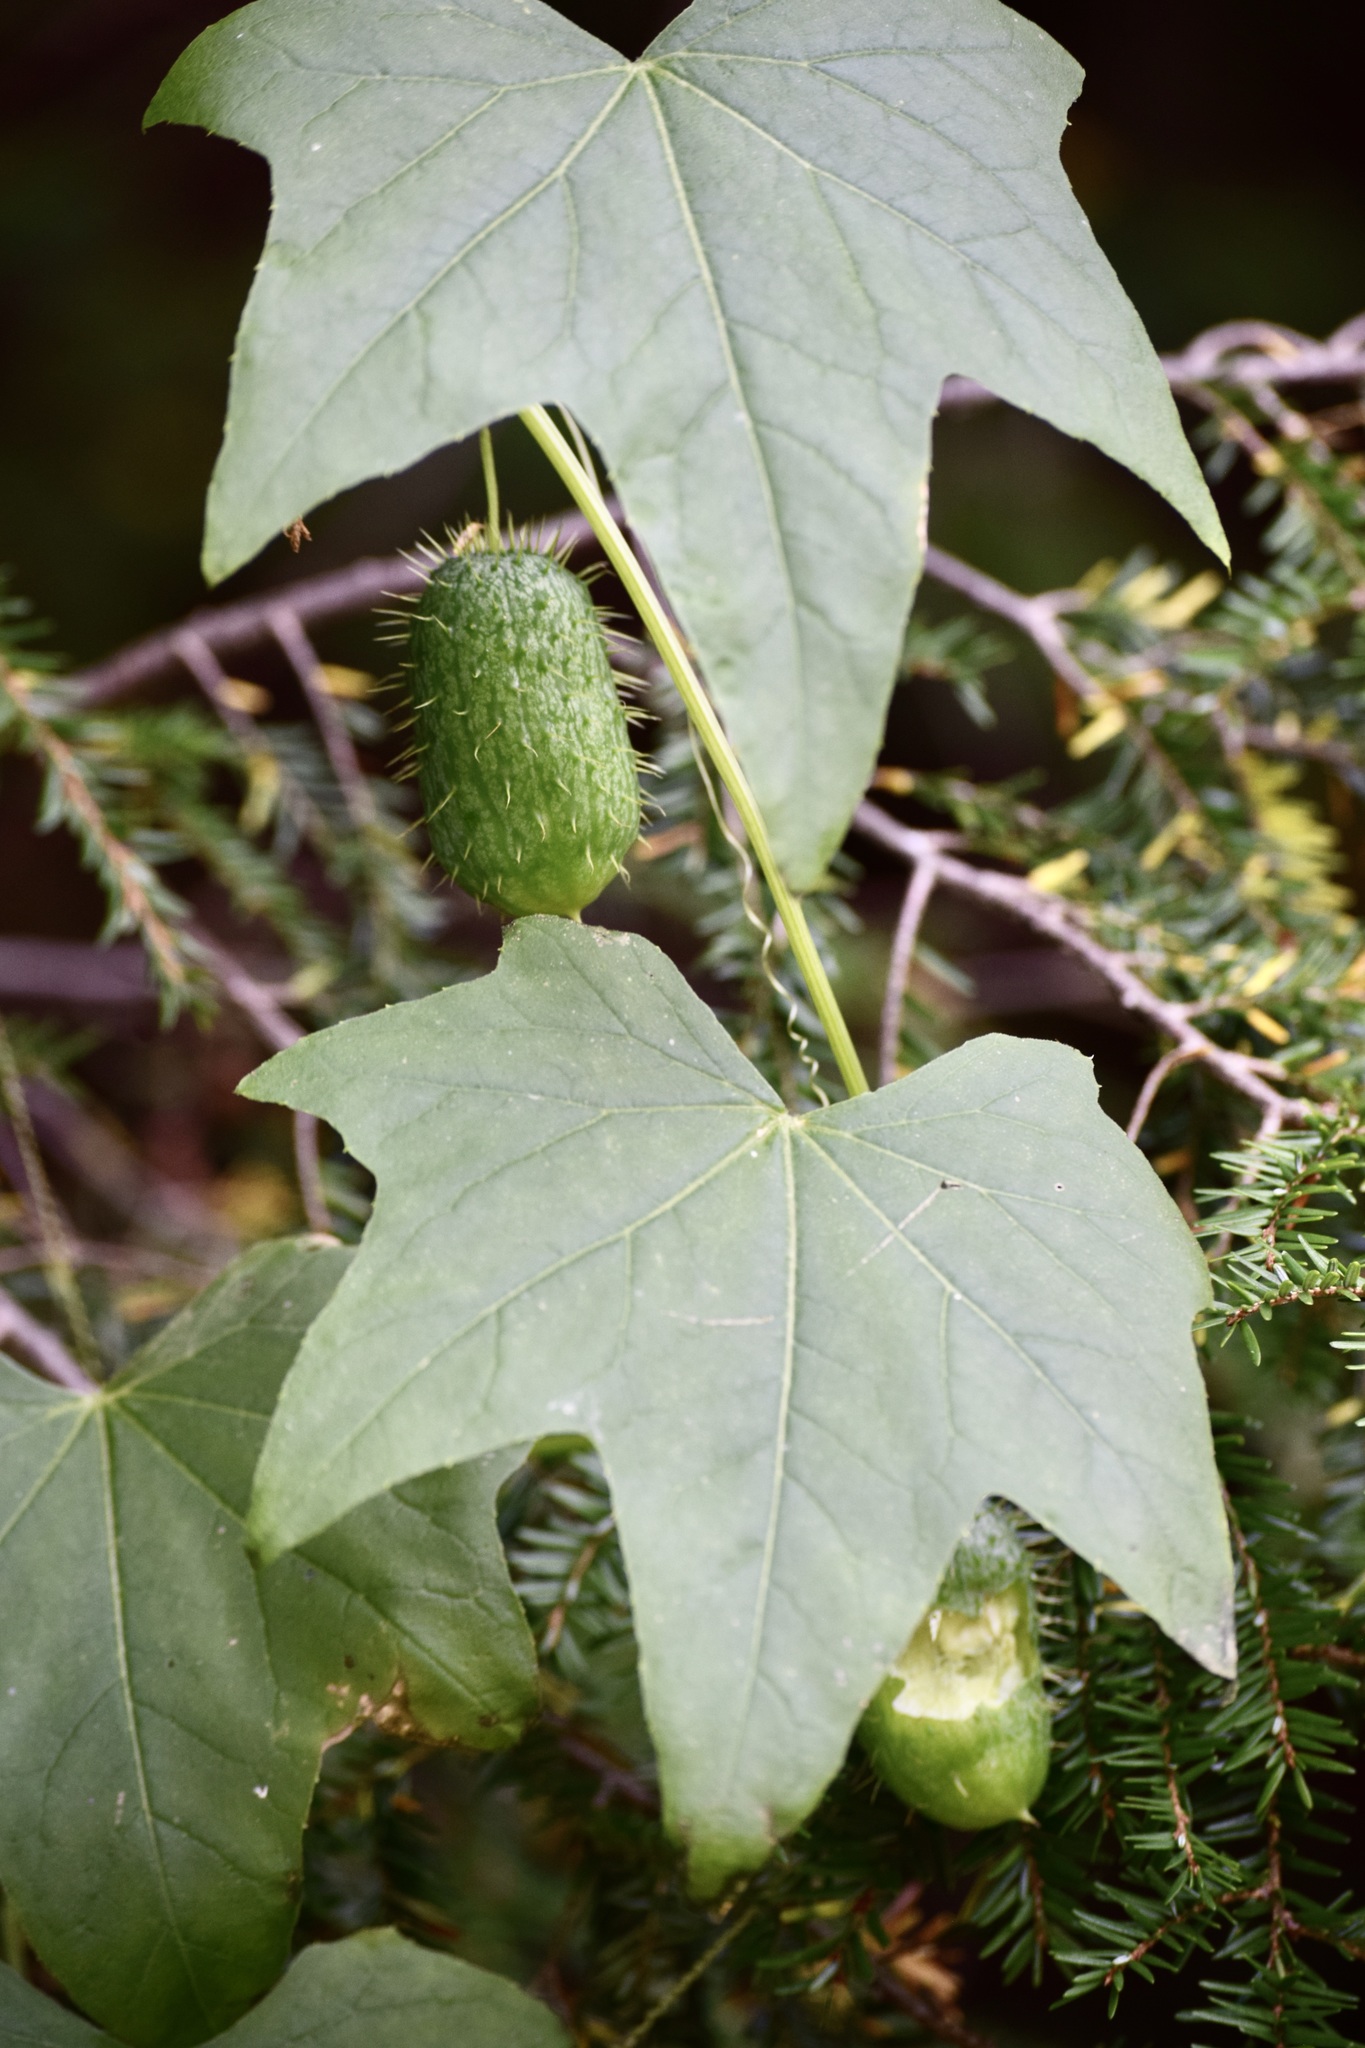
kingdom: Plantae
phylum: Tracheophyta
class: Magnoliopsida
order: Cucurbitales
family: Cucurbitaceae
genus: Echinocystis
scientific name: Echinocystis lobata
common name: Wild cucumber
